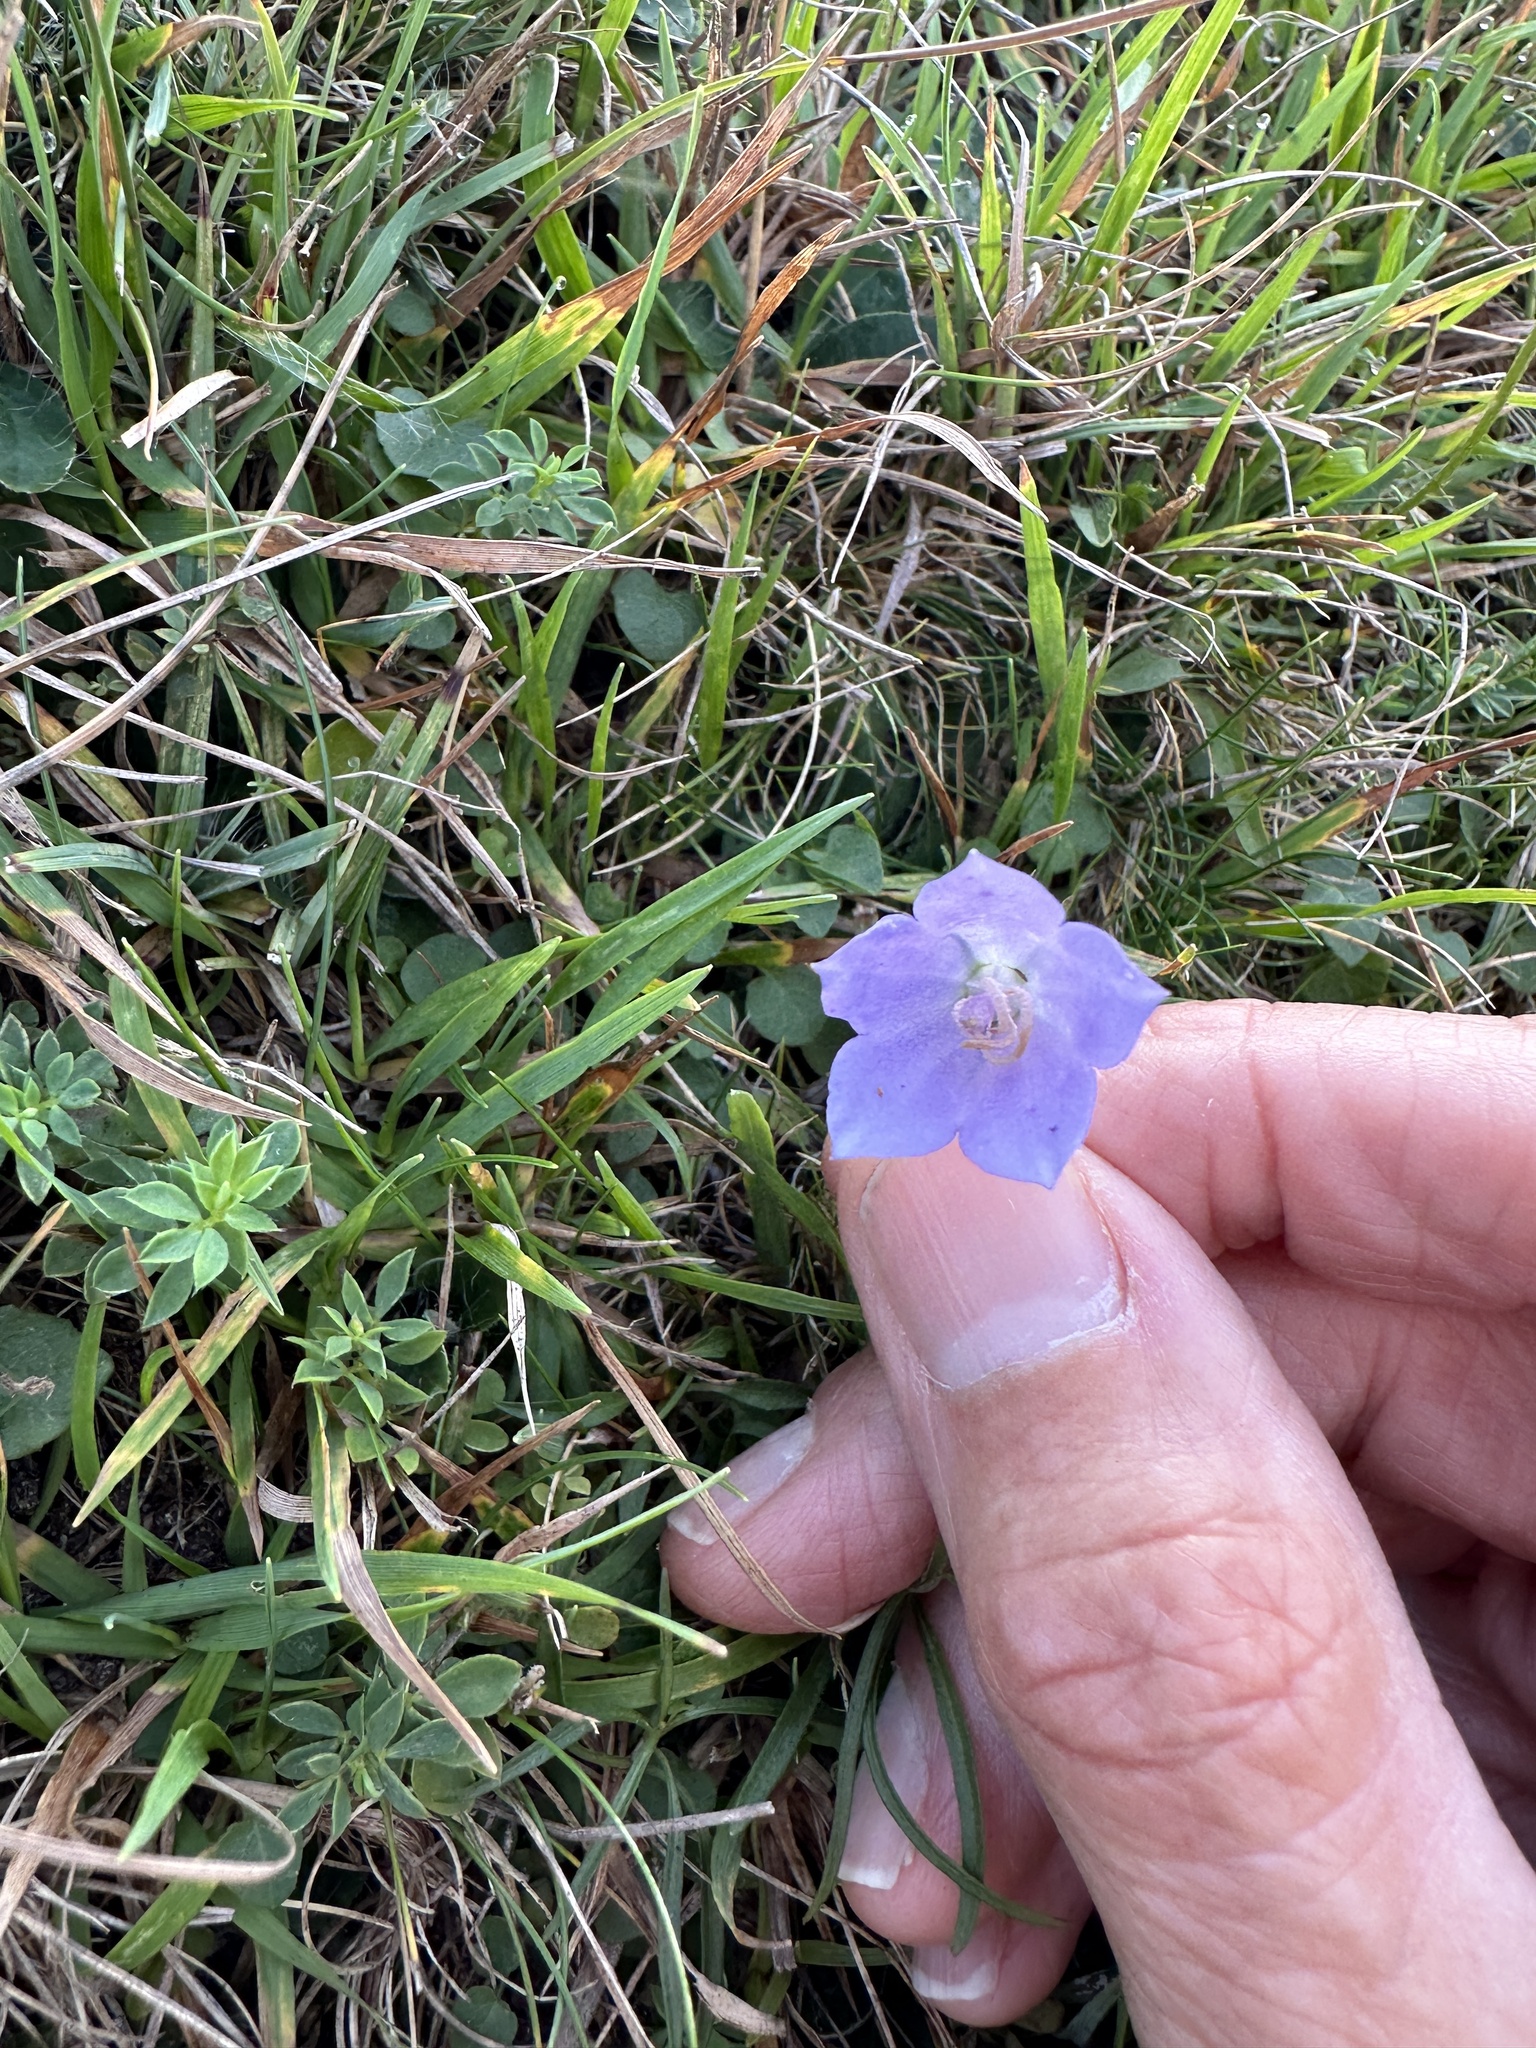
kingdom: Plantae
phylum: Tracheophyta
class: Magnoliopsida
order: Asterales
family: Campanulaceae
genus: Campanula
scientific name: Campanula rotundifolia
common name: Harebell
